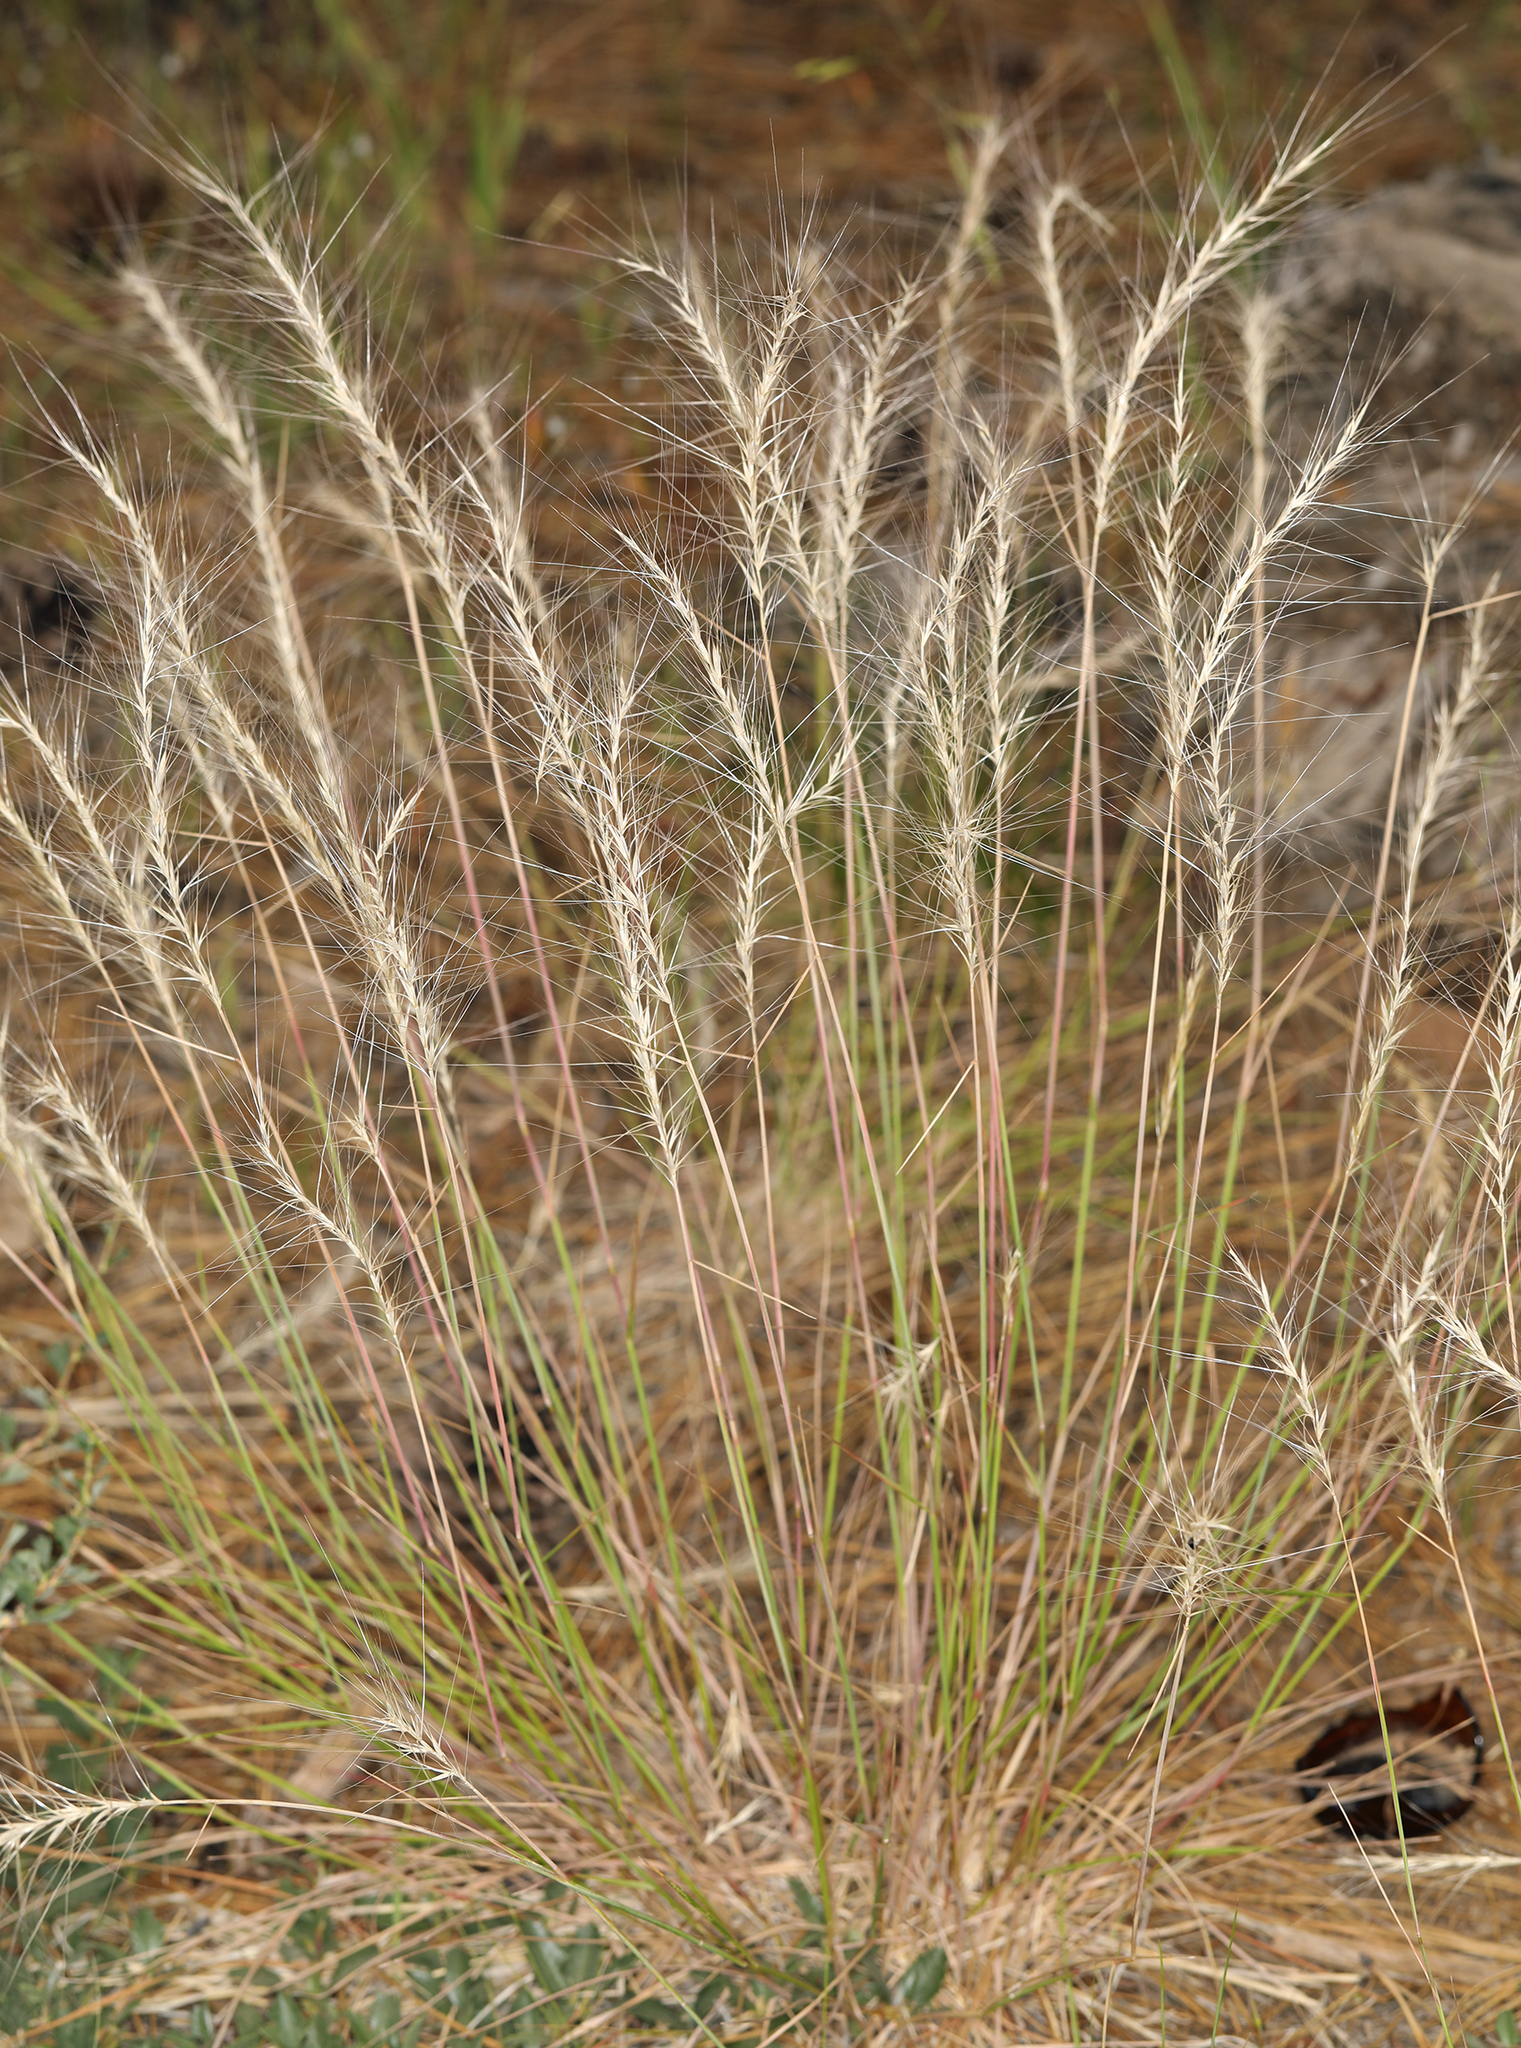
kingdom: Plantae
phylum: Tracheophyta
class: Liliopsida
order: Poales
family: Poaceae
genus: Elymus
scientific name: Elymus elymoides
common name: Bottlebrush squirreltail
